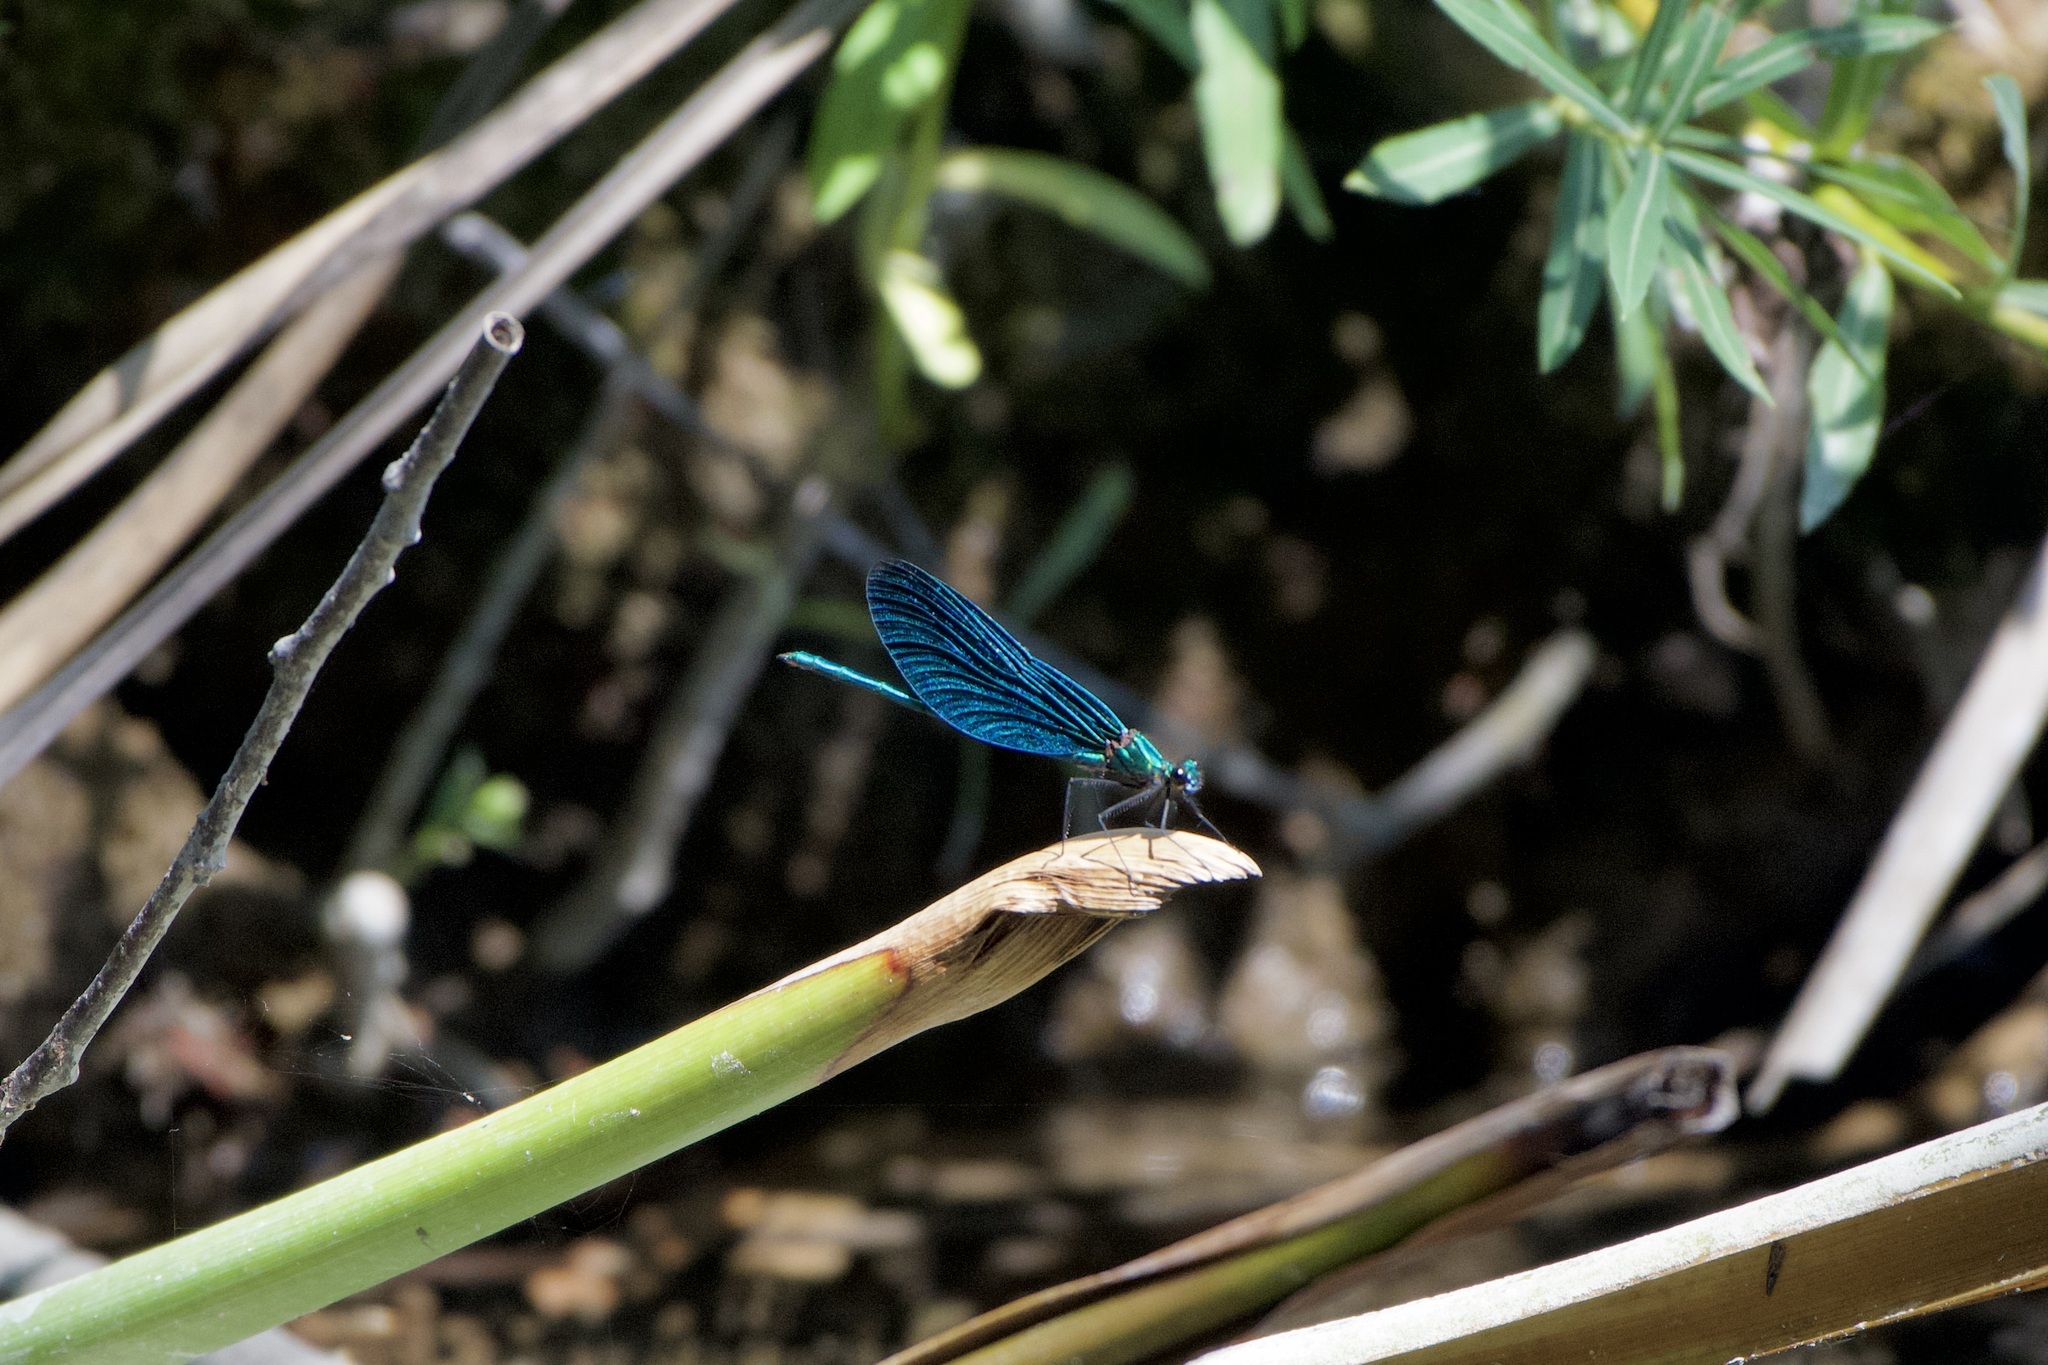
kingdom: Animalia
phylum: Arthropoda
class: Insecta
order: Odonata
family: Calopterygidae
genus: Calopteryx
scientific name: Calopteryx virgo
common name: Beautiful demoiselle
